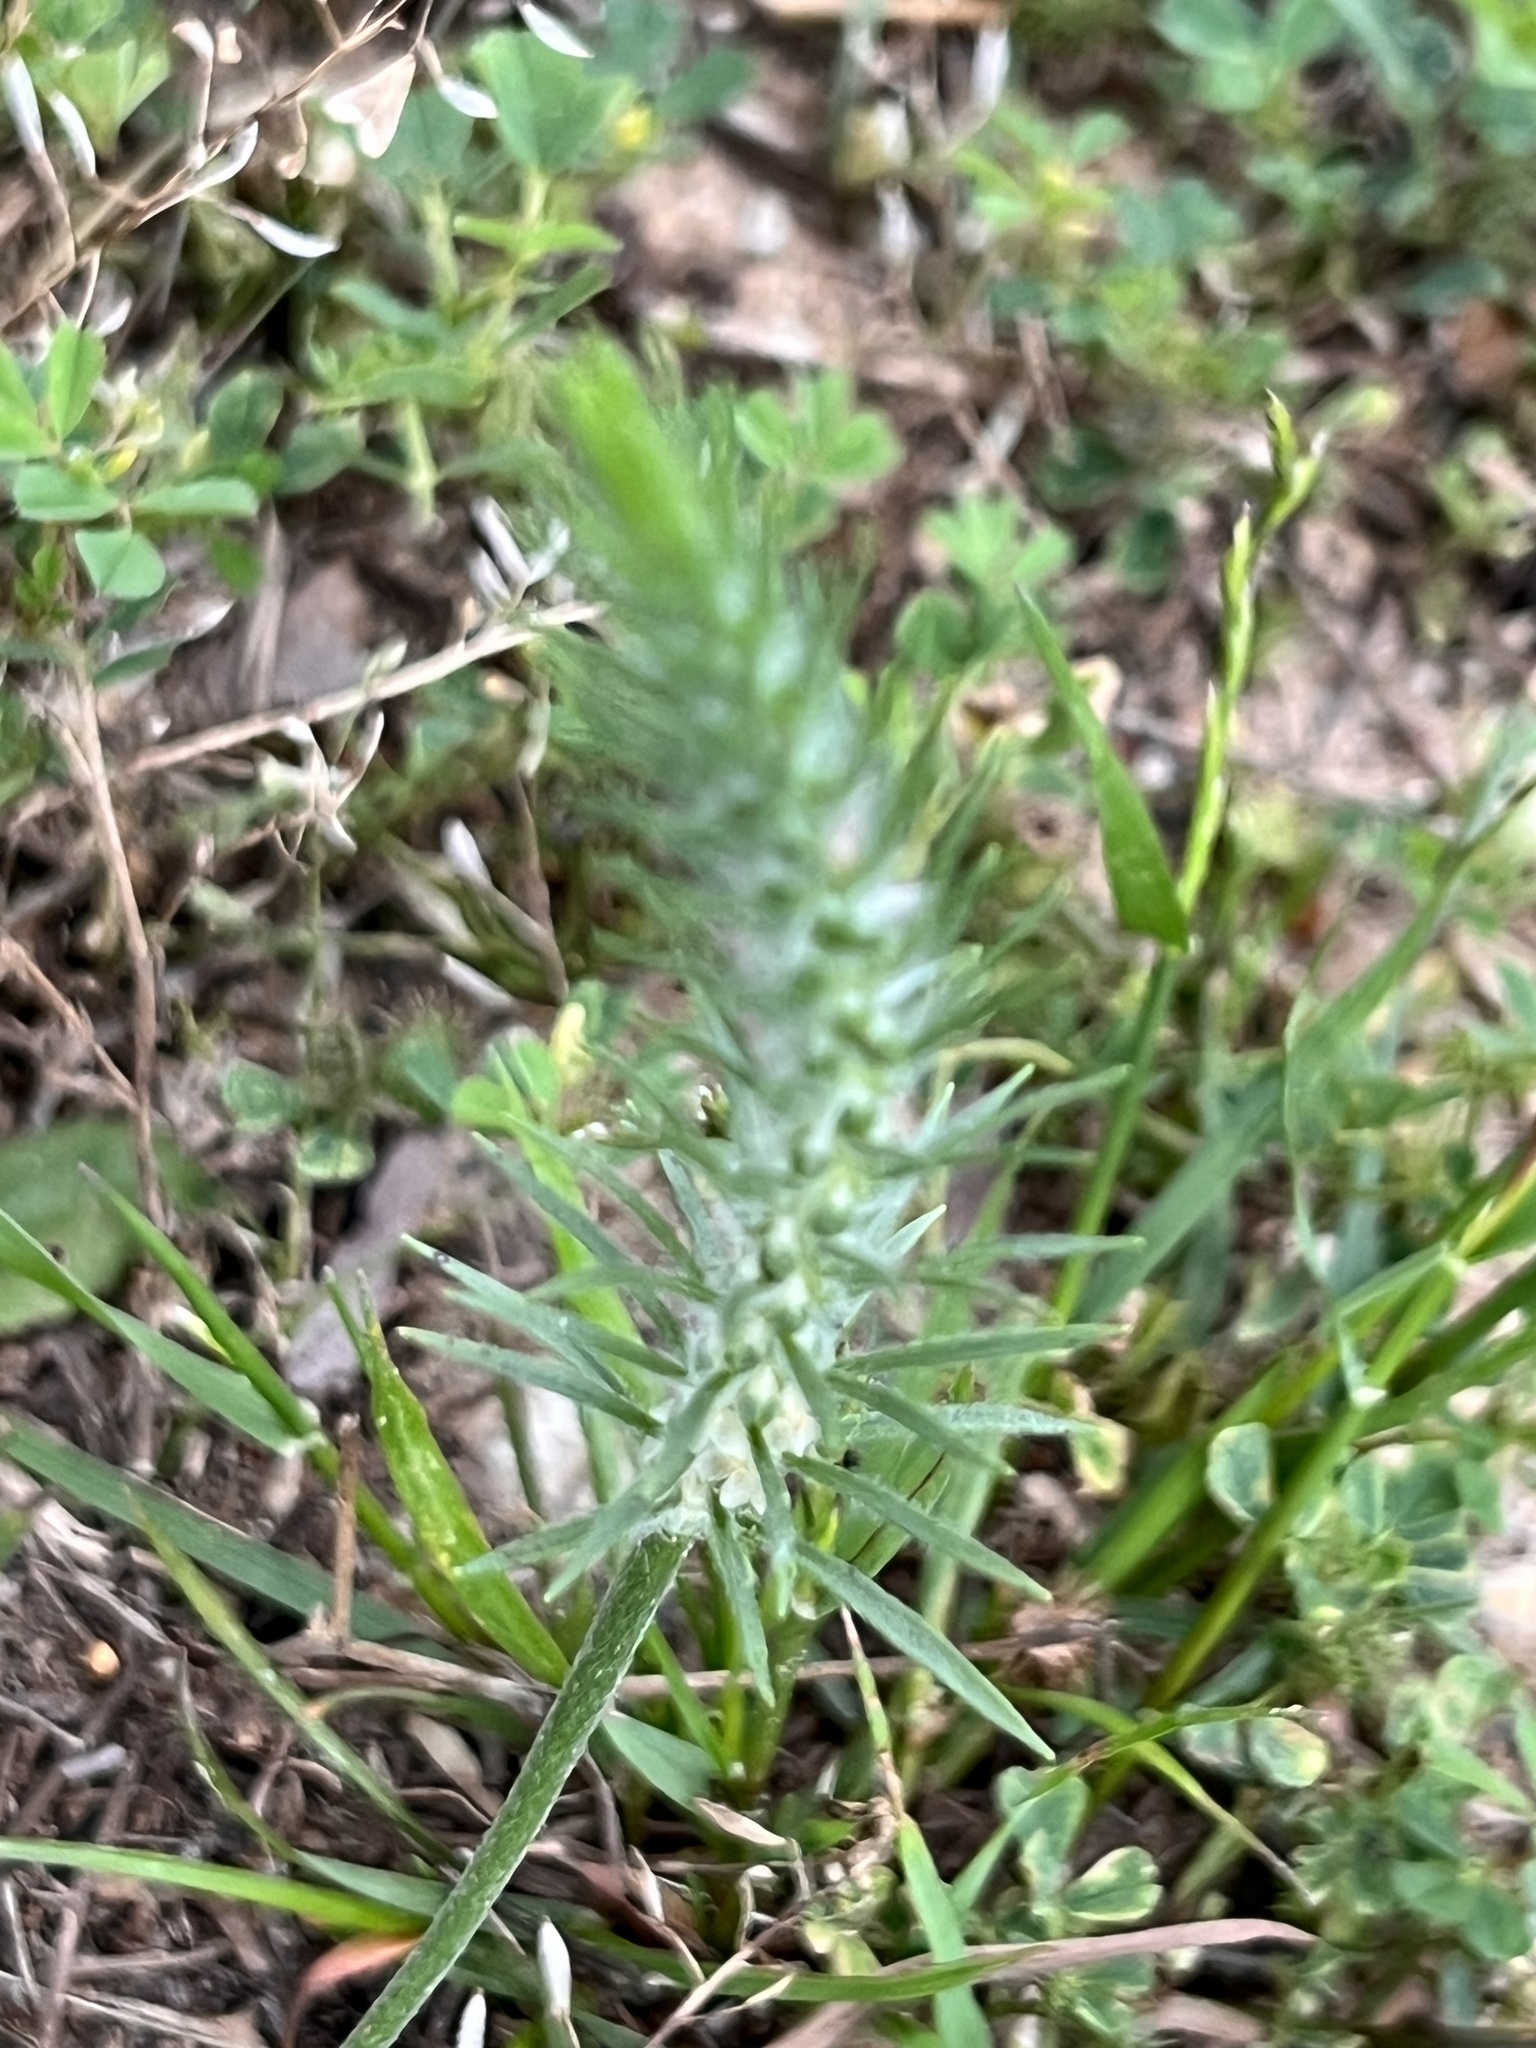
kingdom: Plantae
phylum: Tracheophyta
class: Magnoliopsida
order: Lamiales
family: Plantaginaceae
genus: Plantago
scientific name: Plantago aristata
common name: Bracted plantain
